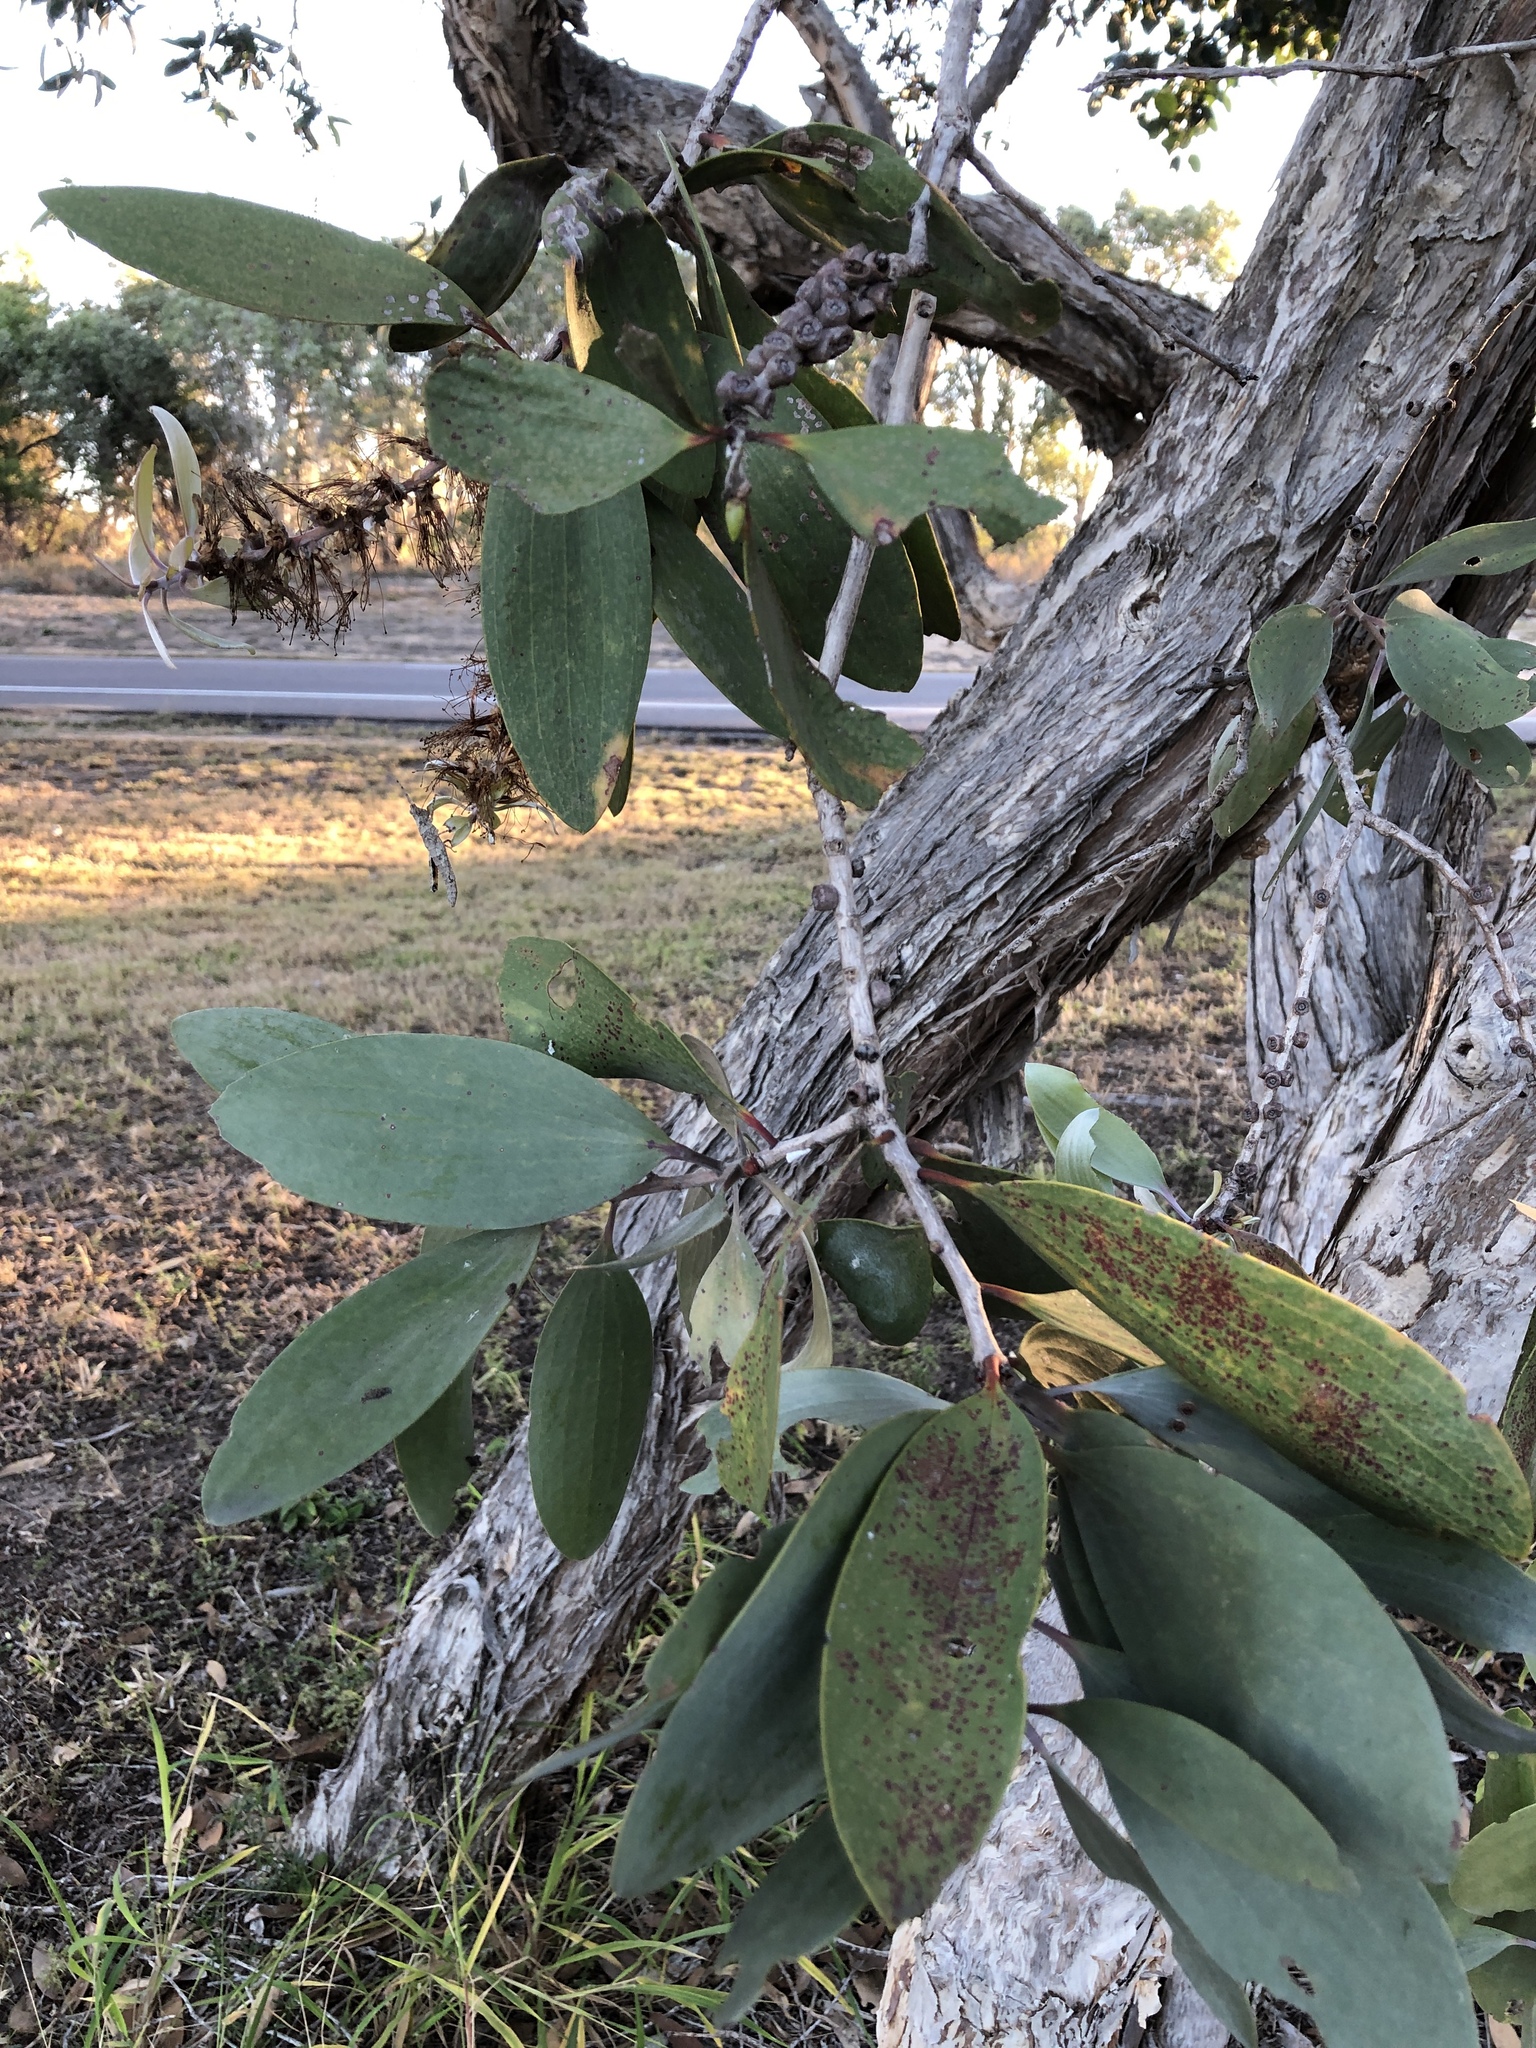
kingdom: Plantae
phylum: Tracheophyta
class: Magnoliopsida
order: Myrtales
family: Myrtaceae
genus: Melaleuca
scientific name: Melaleuca viridiflora
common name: Brown-leaved paperbark
